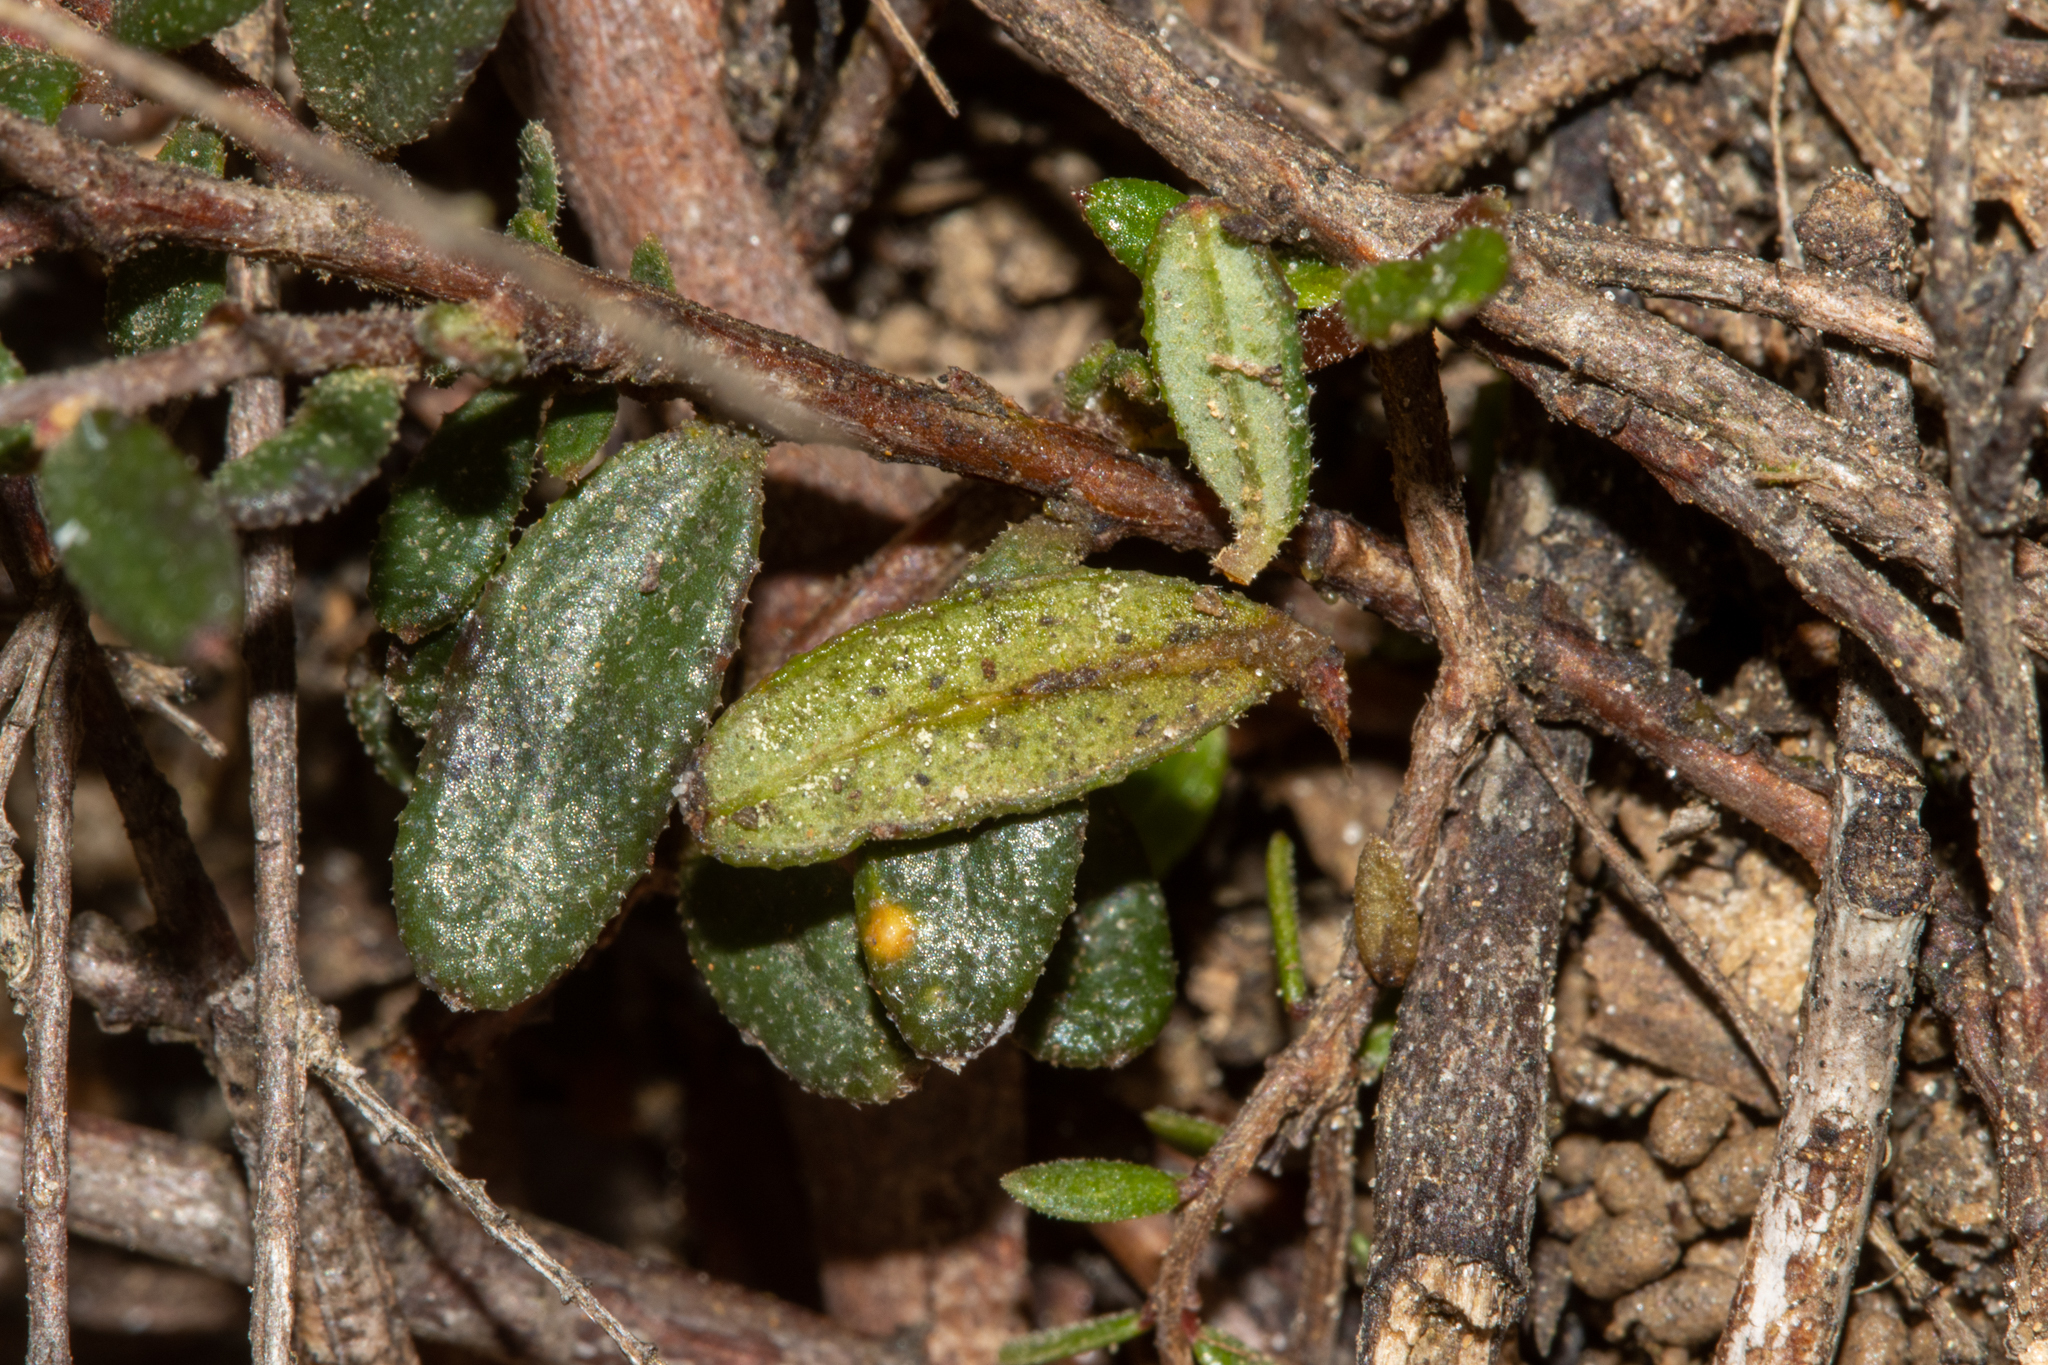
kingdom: Plantae
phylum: Tracheophyta
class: Magnoliopsida
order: Dilleniales
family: Dilleniaceae
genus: Hibbertia
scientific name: Hibbertia
